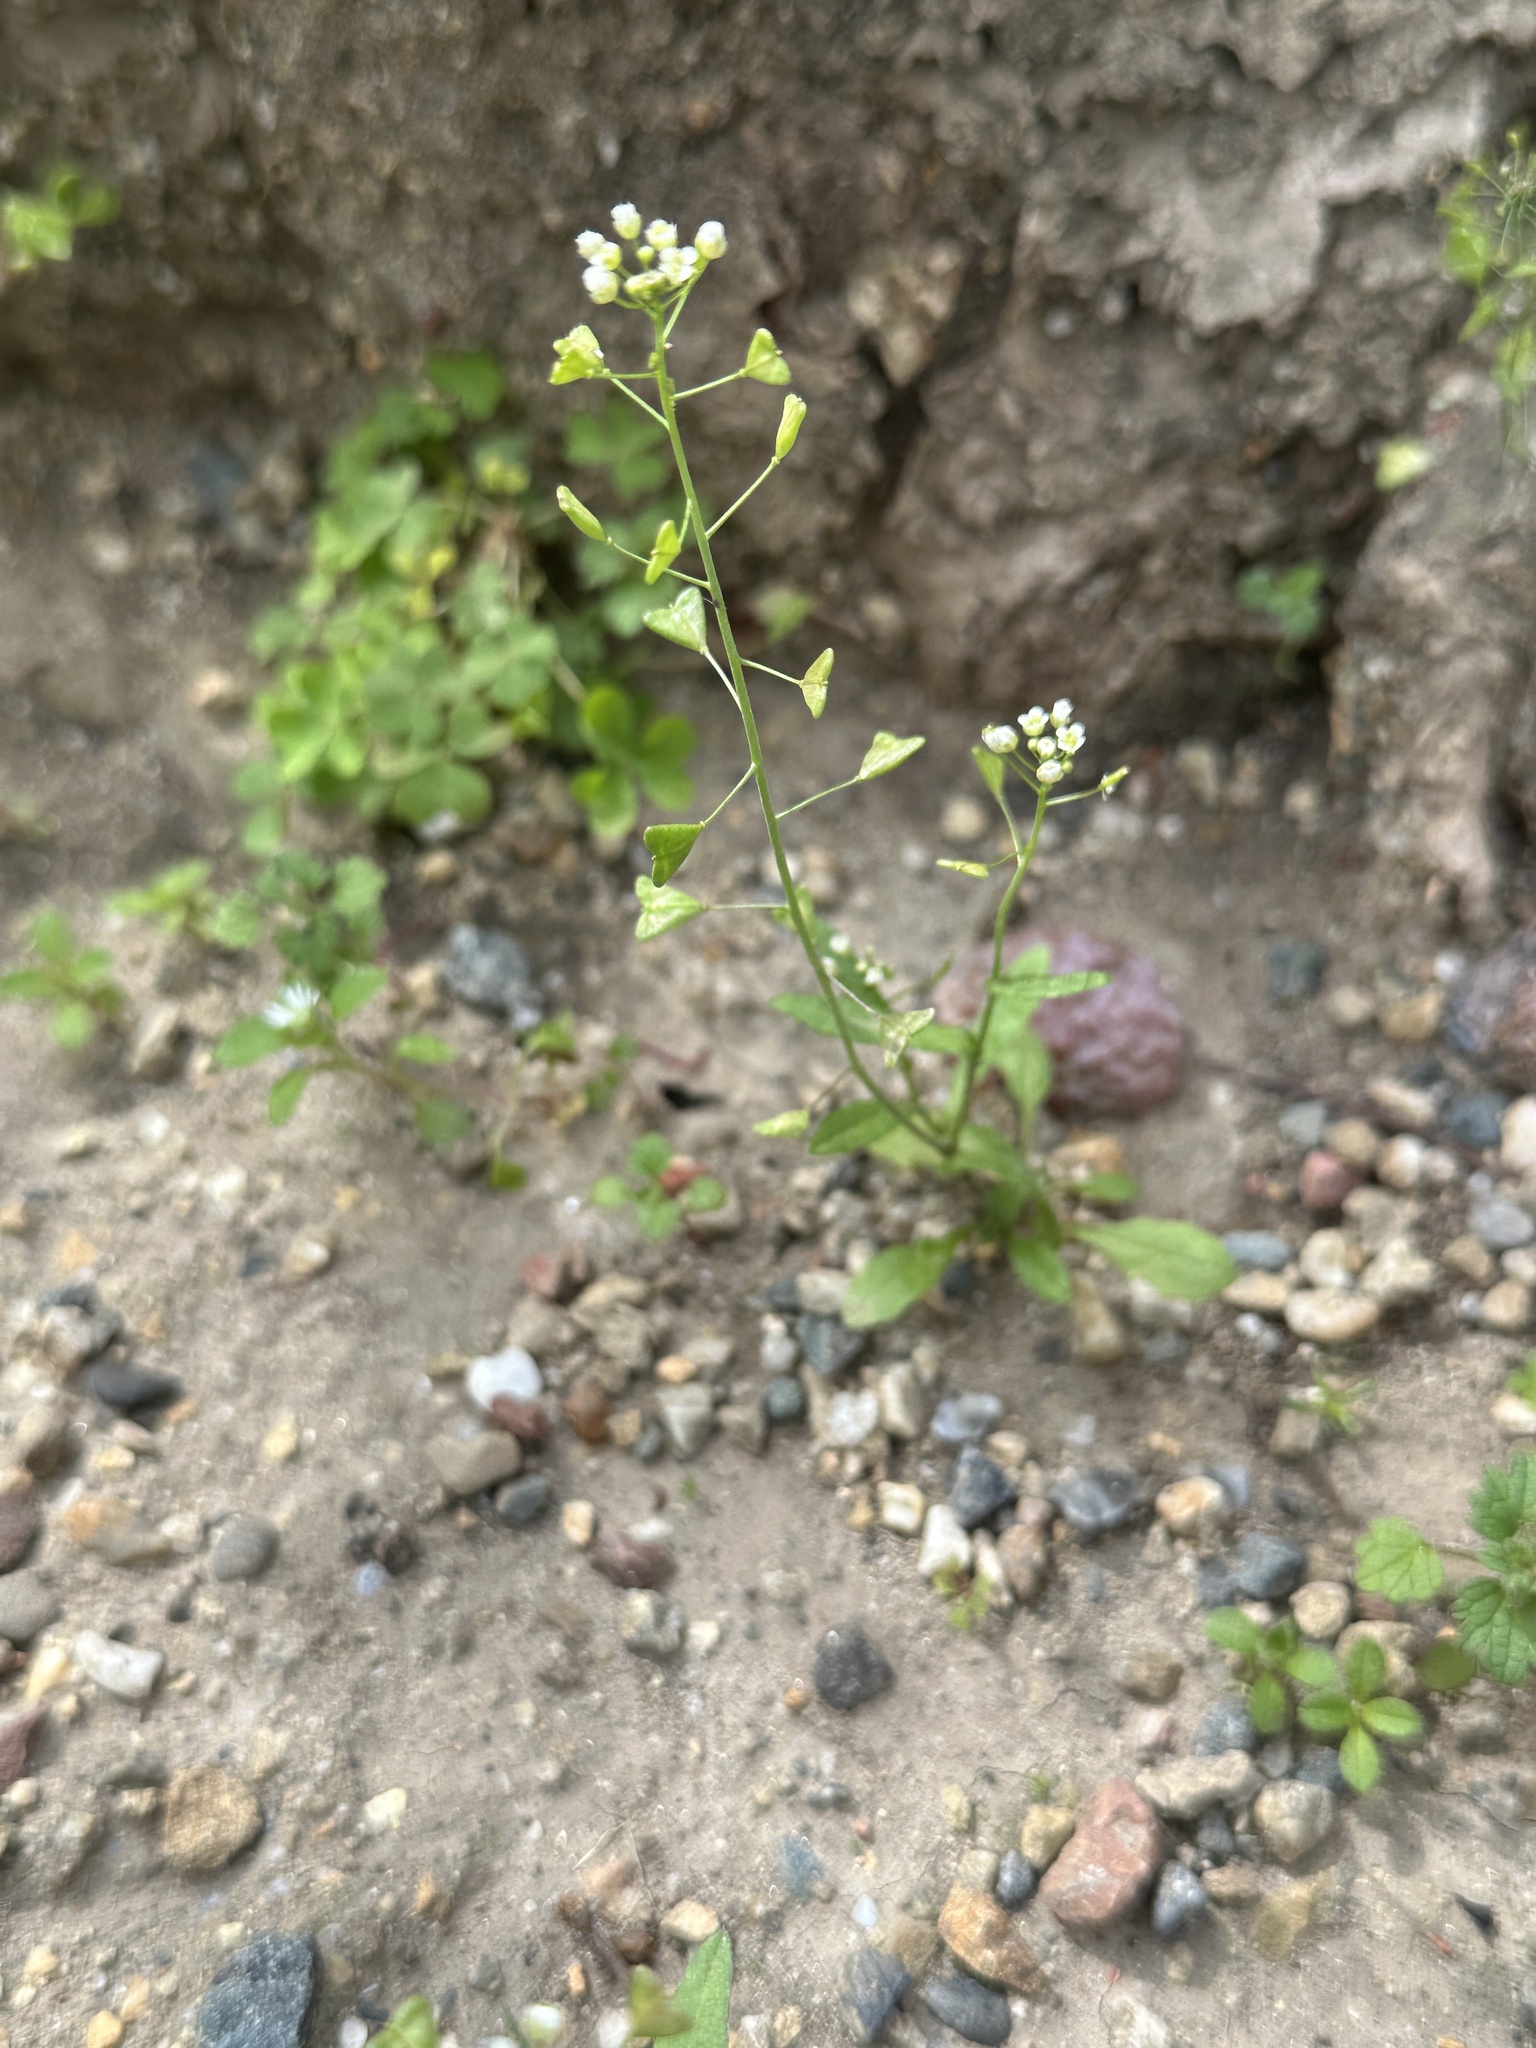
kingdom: Plantae
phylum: Tracheophyta
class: Magnoliopsida
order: Brassicales
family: Brassicaceae
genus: Capsella
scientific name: Capsella bursa-pastoris
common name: Shepherd's purse
